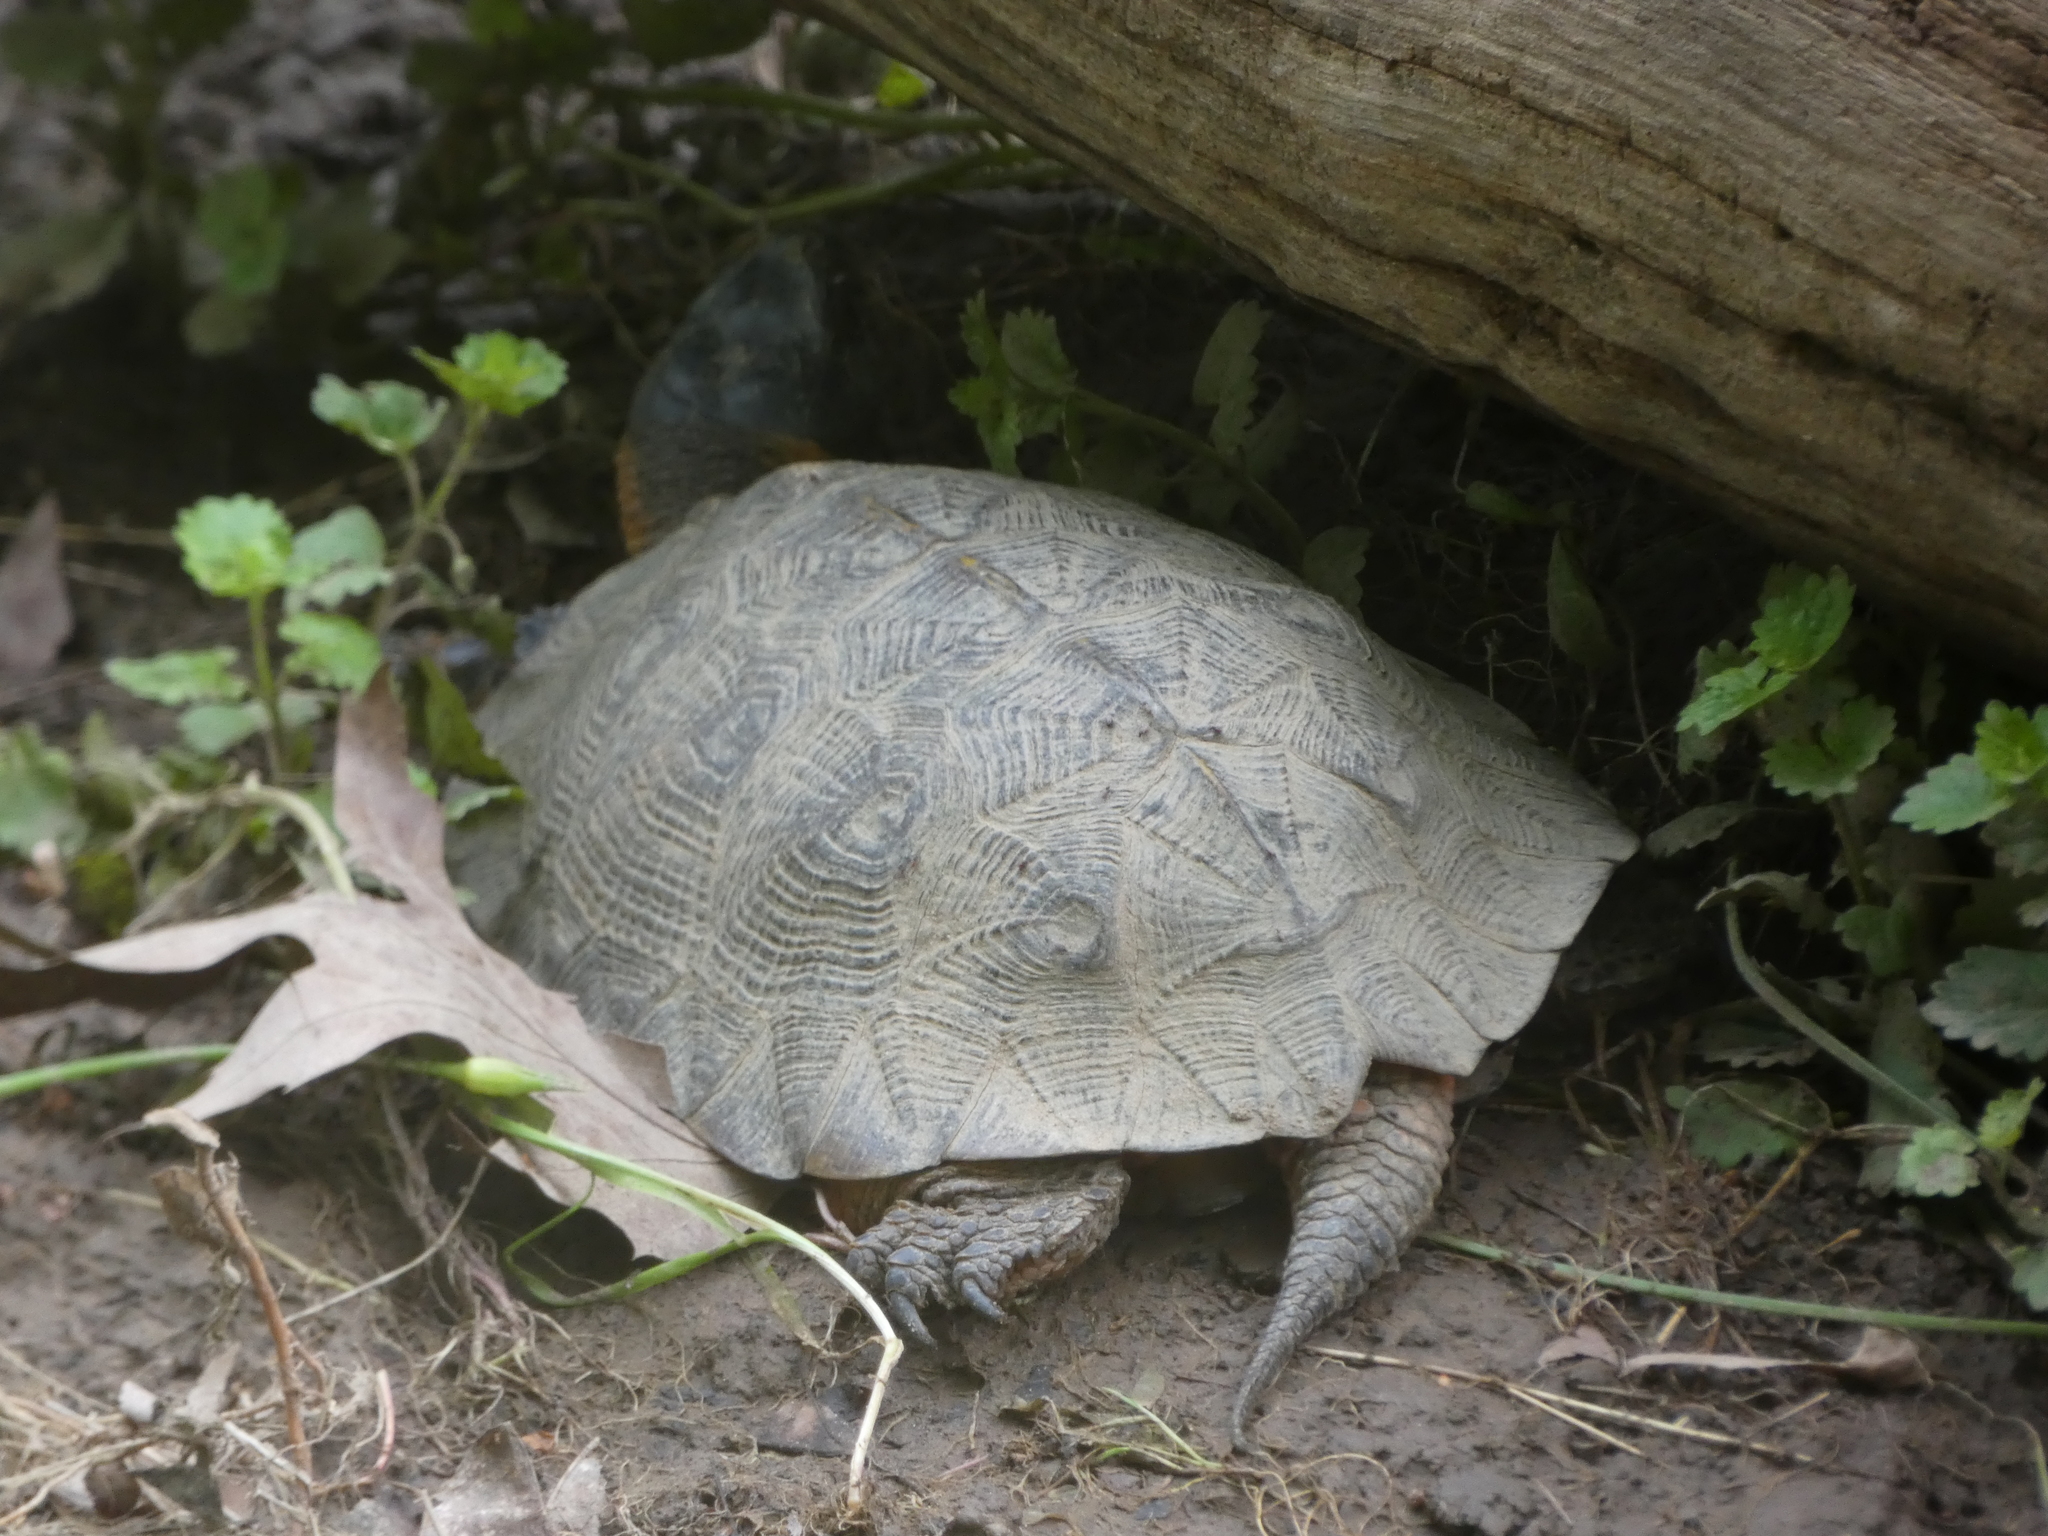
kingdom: Animalia
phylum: Chordata
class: Testudines
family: Emydidae
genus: Glyptemys
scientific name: Glyptemys insculpta
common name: Wood turtle
